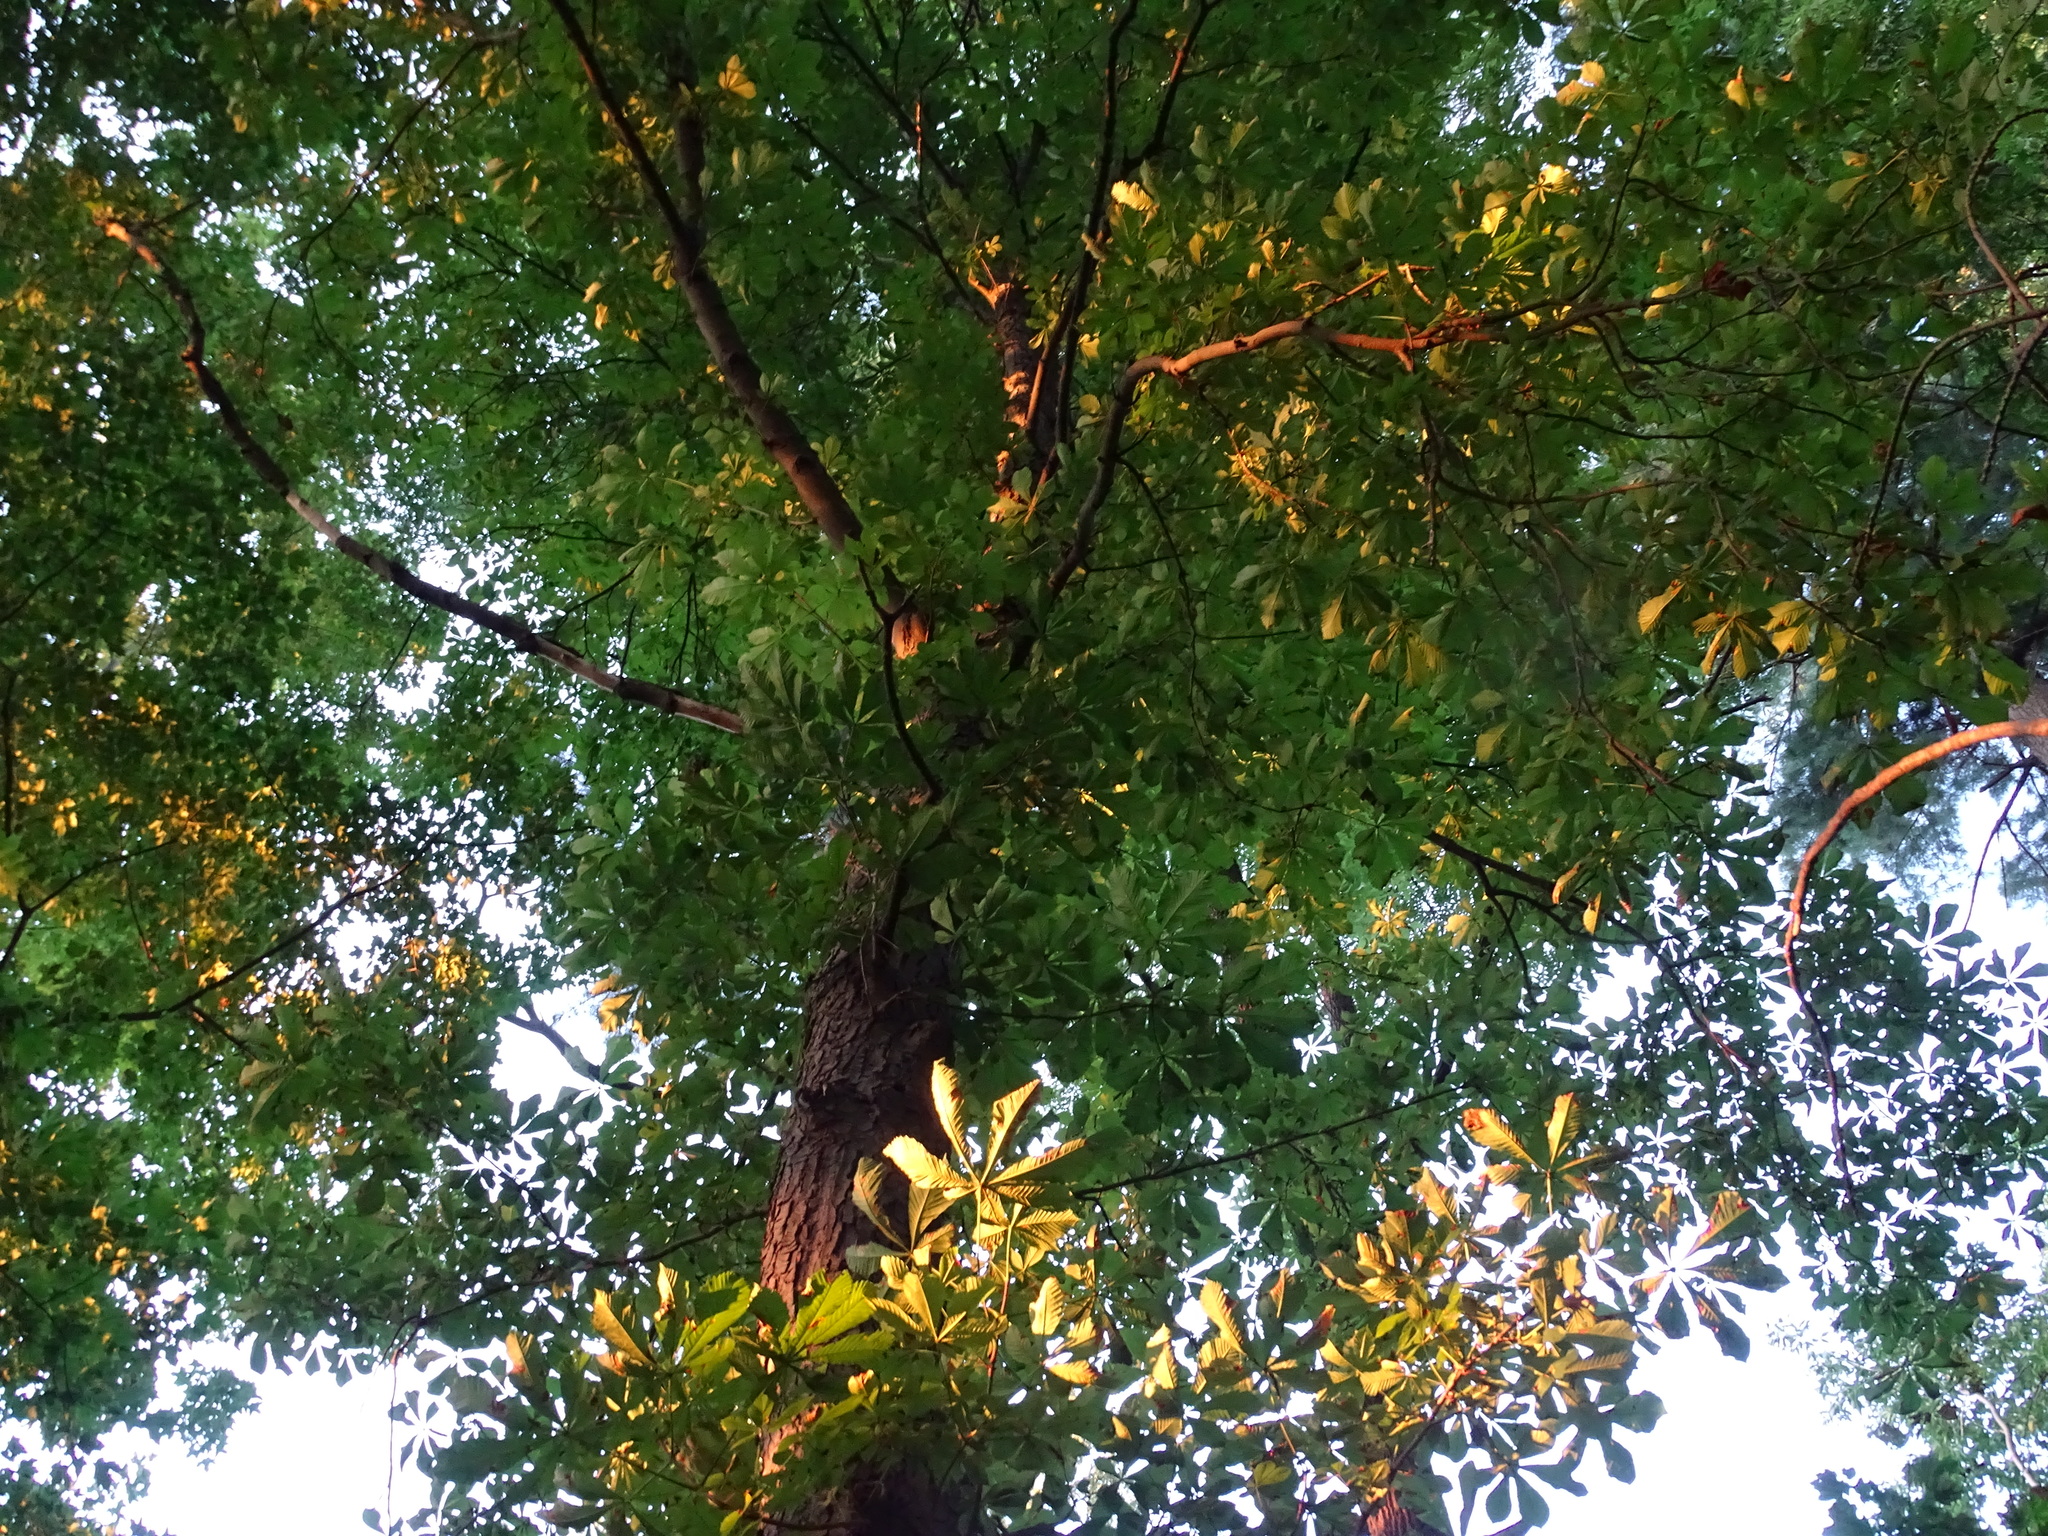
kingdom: Plantae
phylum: Tracheophyta
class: Magnoliopsida
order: Sapindales
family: Sapindaceae
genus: Aesculus
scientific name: Aesculus hippocastanum
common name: Horse-chestnut
